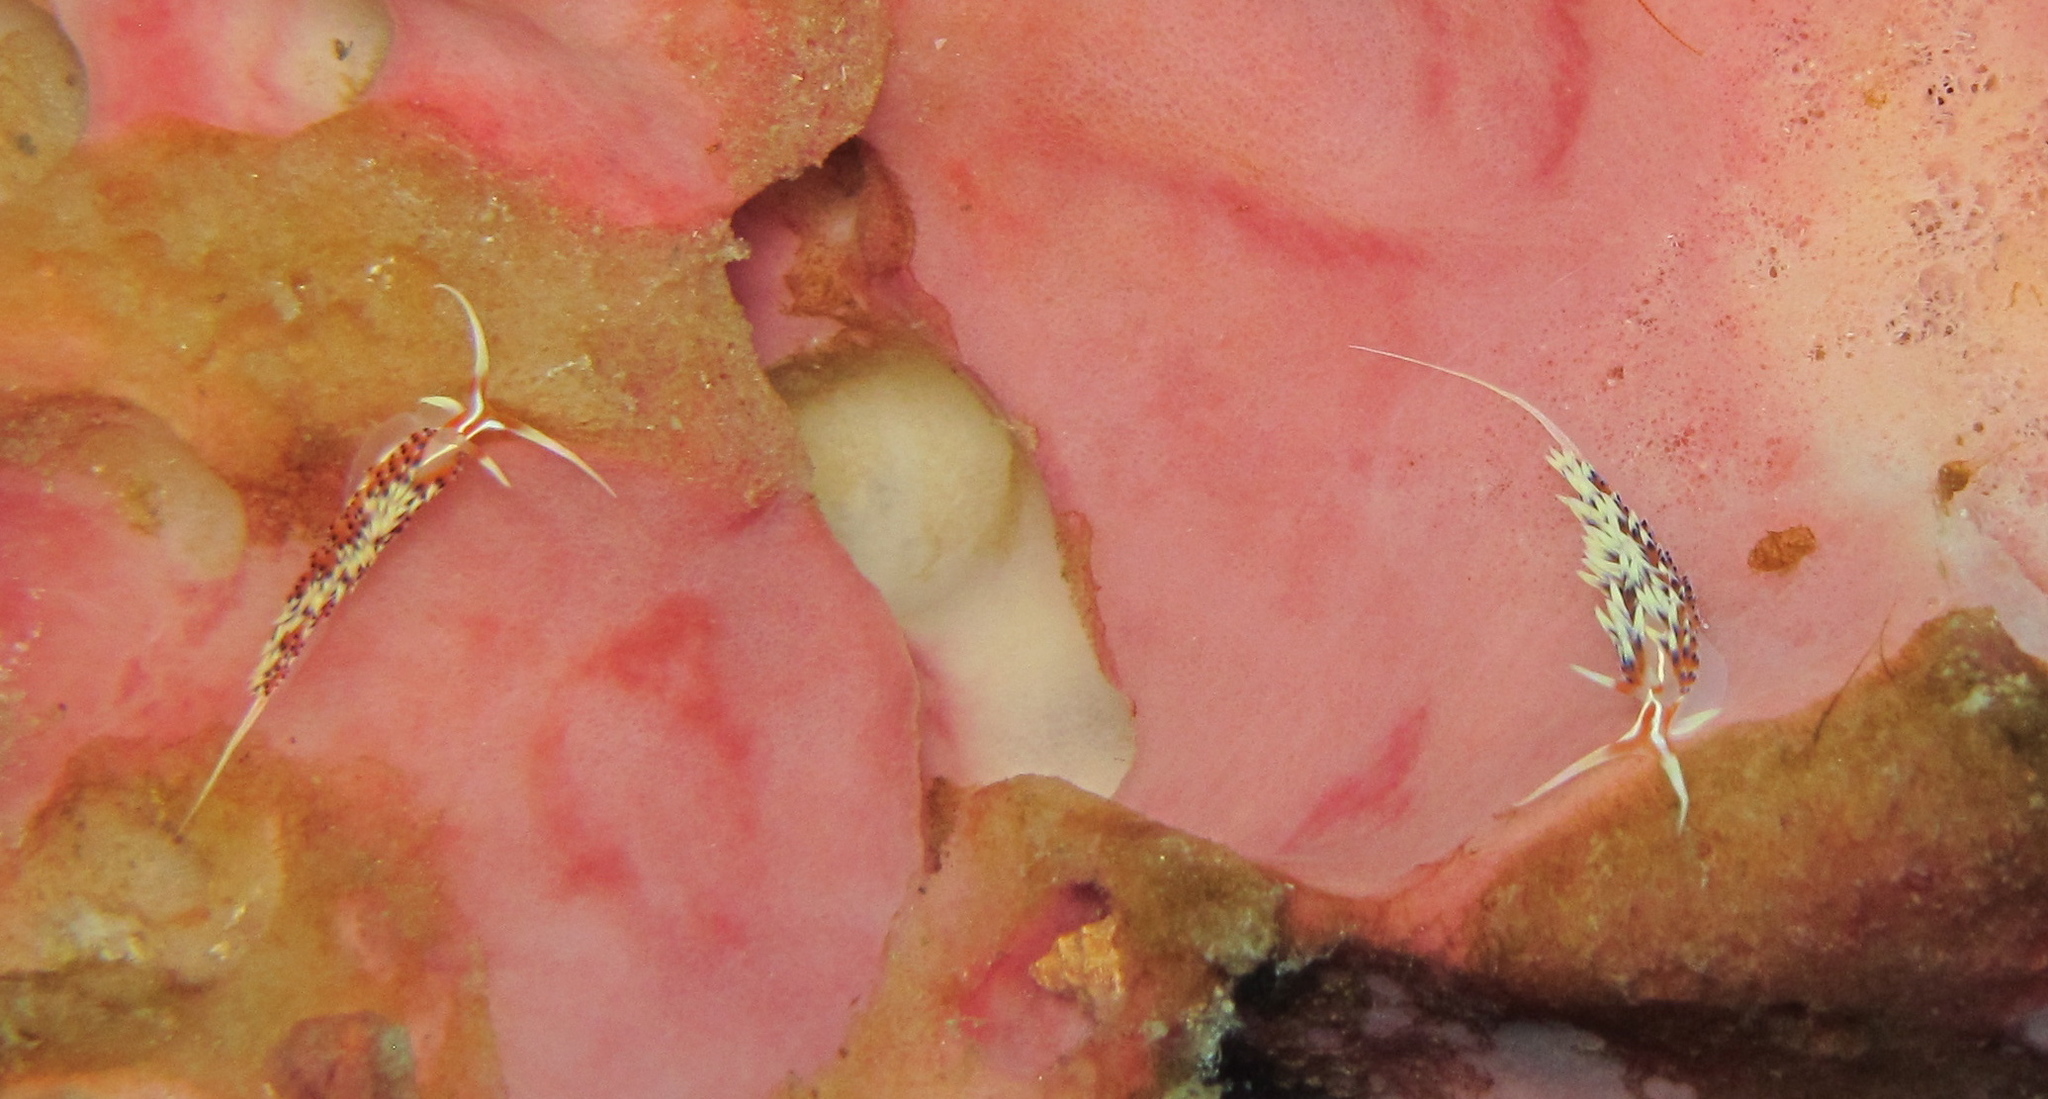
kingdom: Animalia
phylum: Mollusca
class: Gastropoda
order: Nudibranchia
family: Facelinidae
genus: Caloria
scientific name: Caloria indica
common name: Sea slug
